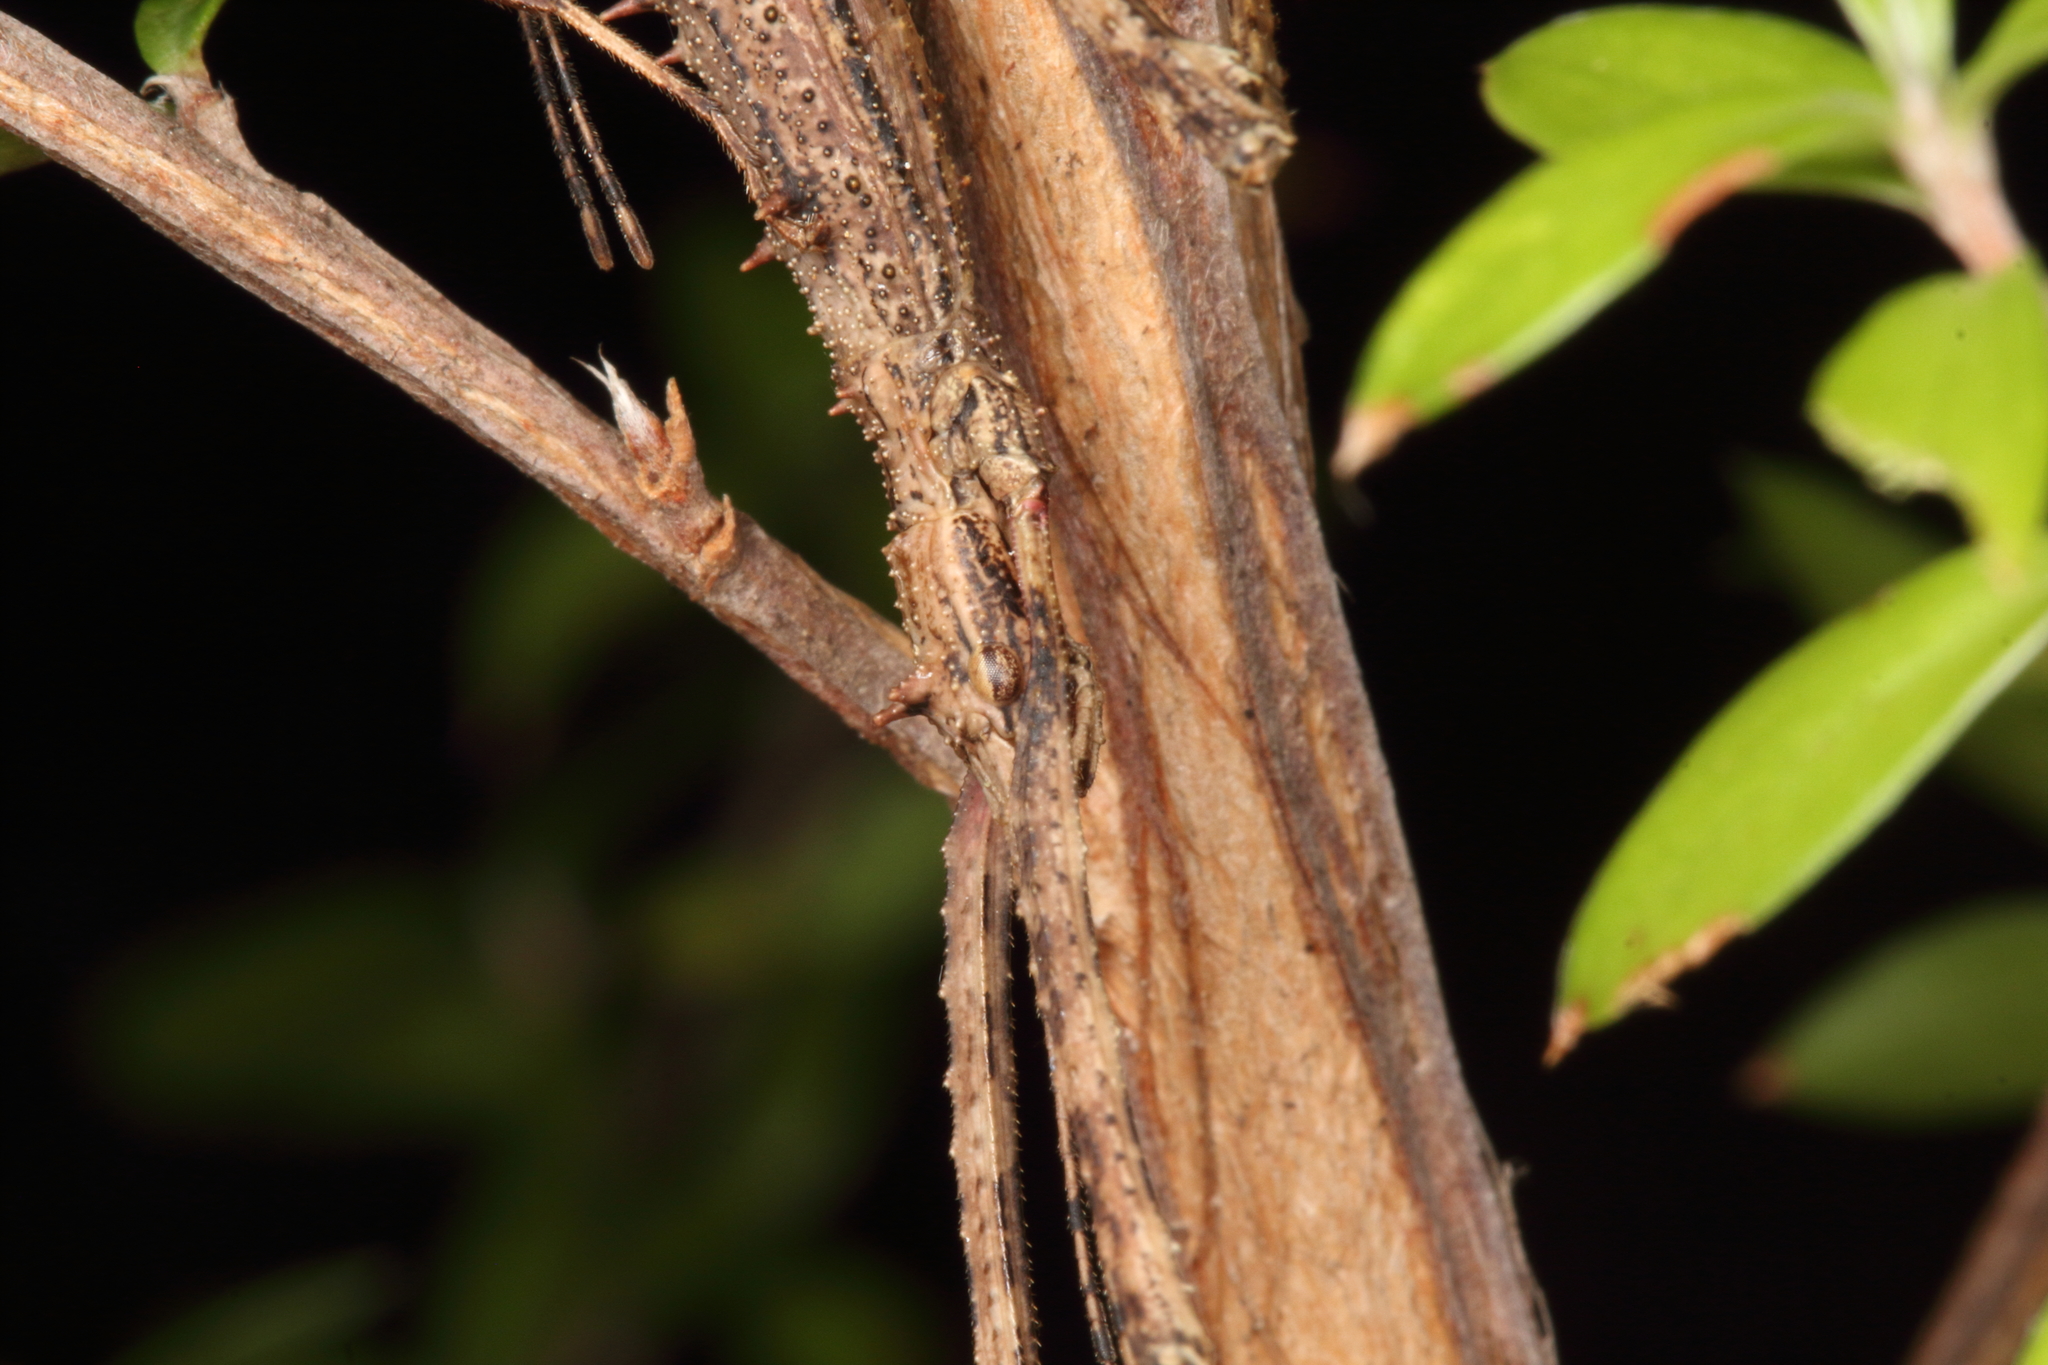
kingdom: Animalia
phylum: Arthropoda
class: Insecta
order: Phasmida
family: Phasmatidae
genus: Micrarchus
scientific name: Micrarchus hystriculeus
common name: The lesser spiny stick insect
